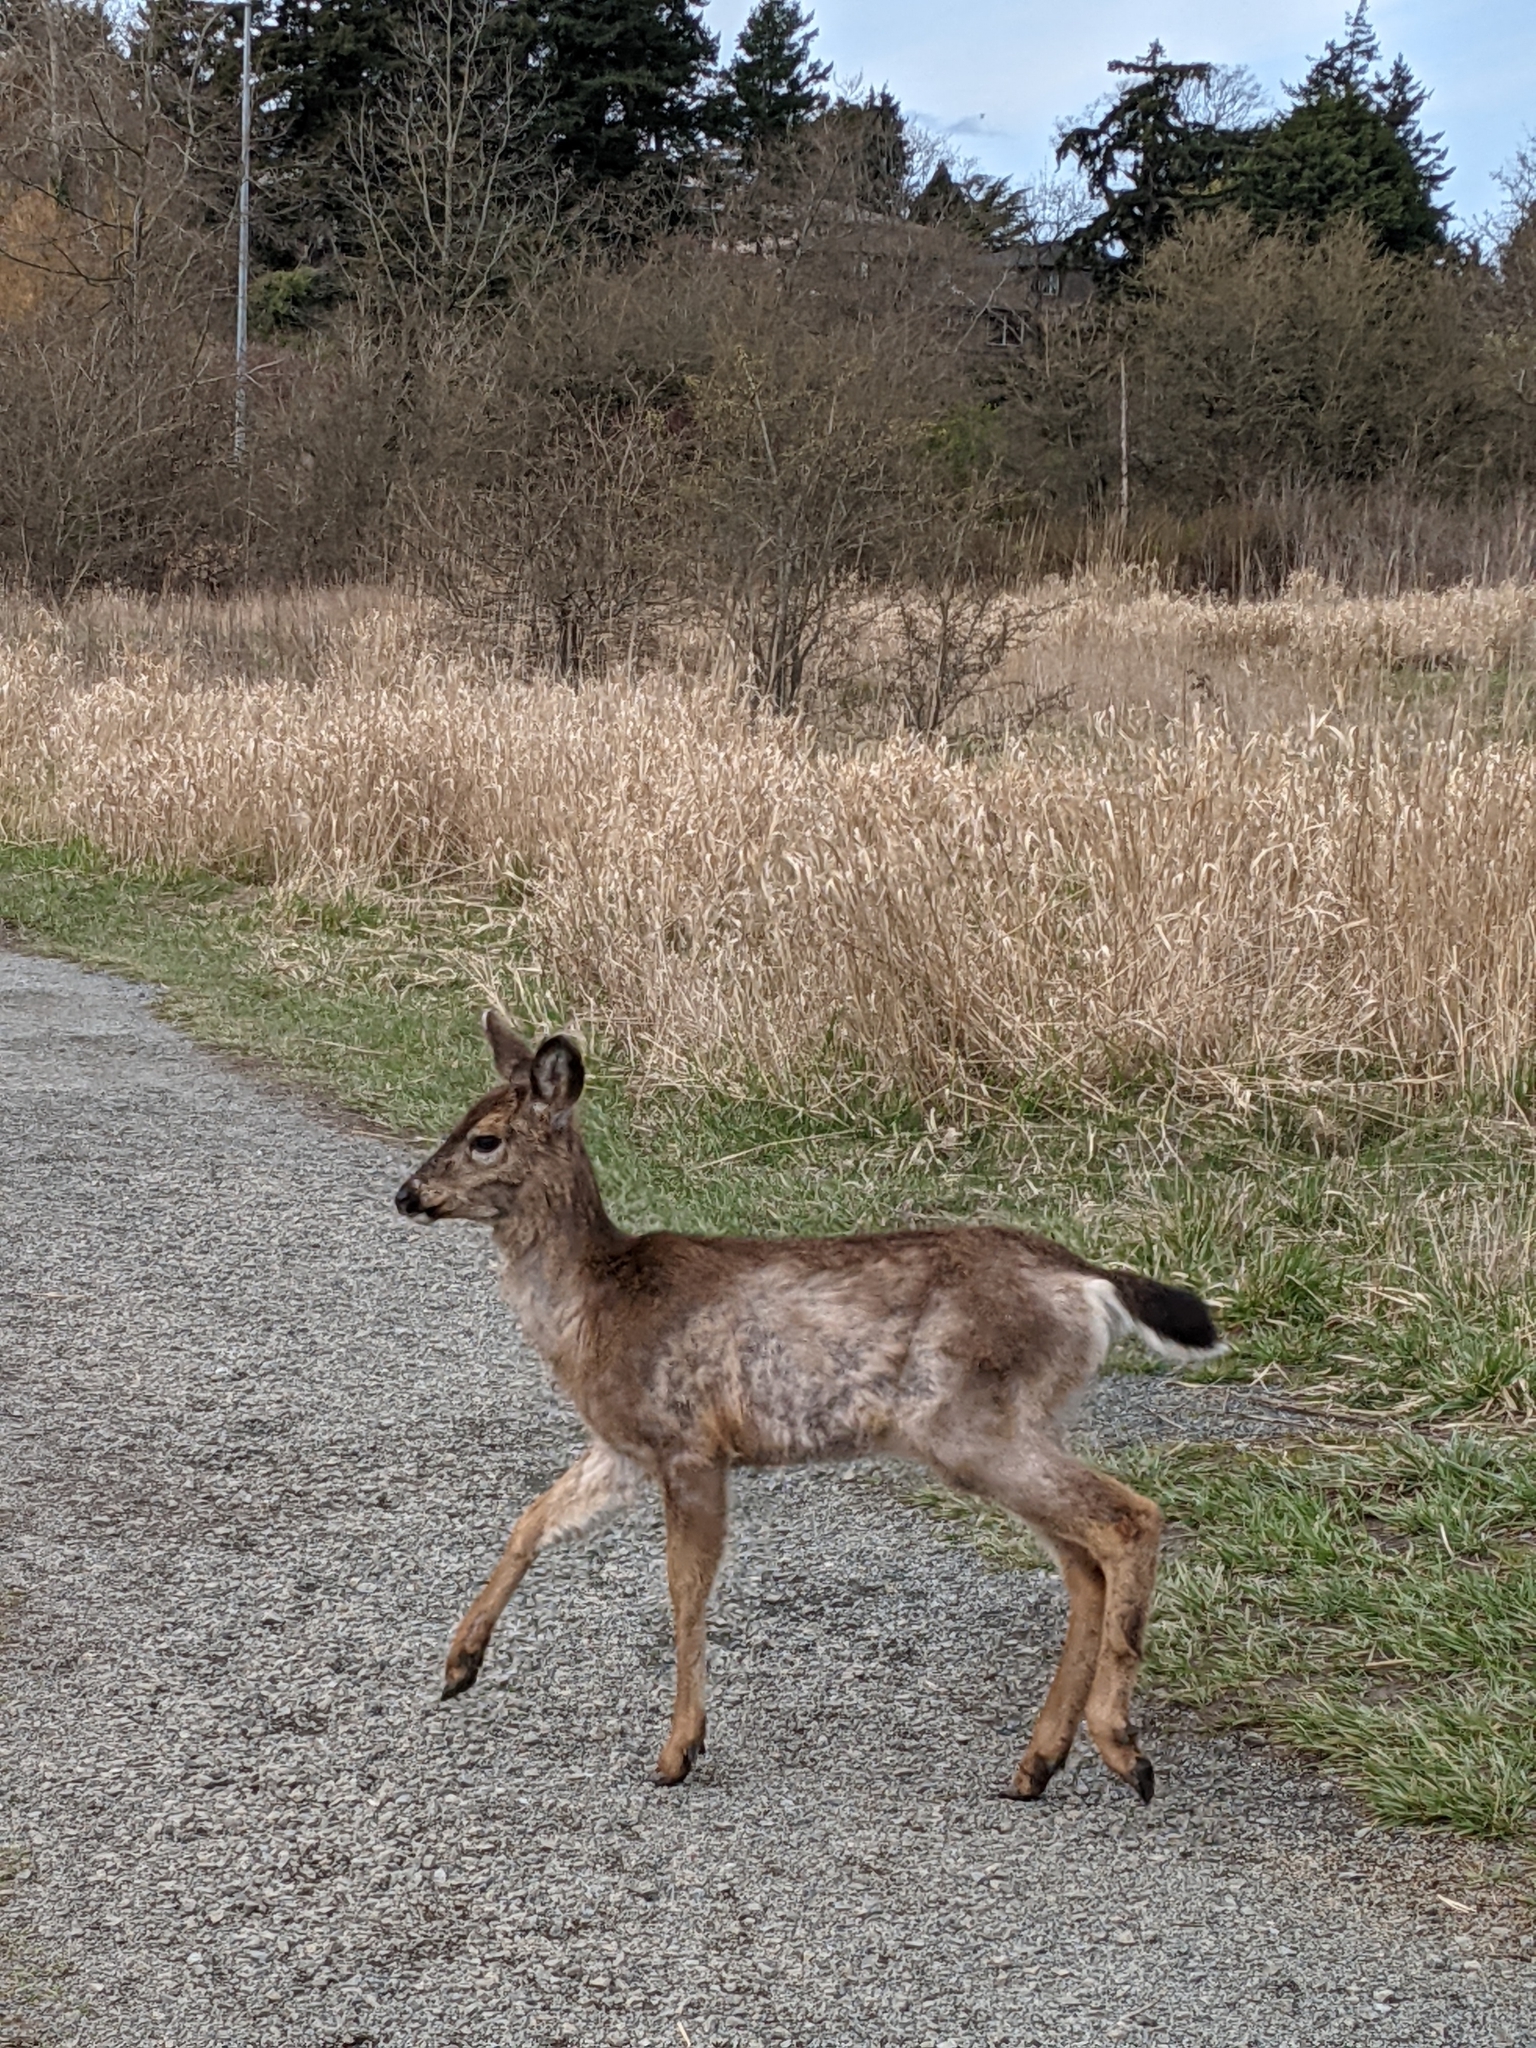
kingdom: Animalia
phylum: Chordata
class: Mammalia
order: Artiodactyla
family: Cervidae
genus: Odocoileus
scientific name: Odocoileus hemionus
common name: Mule deer
